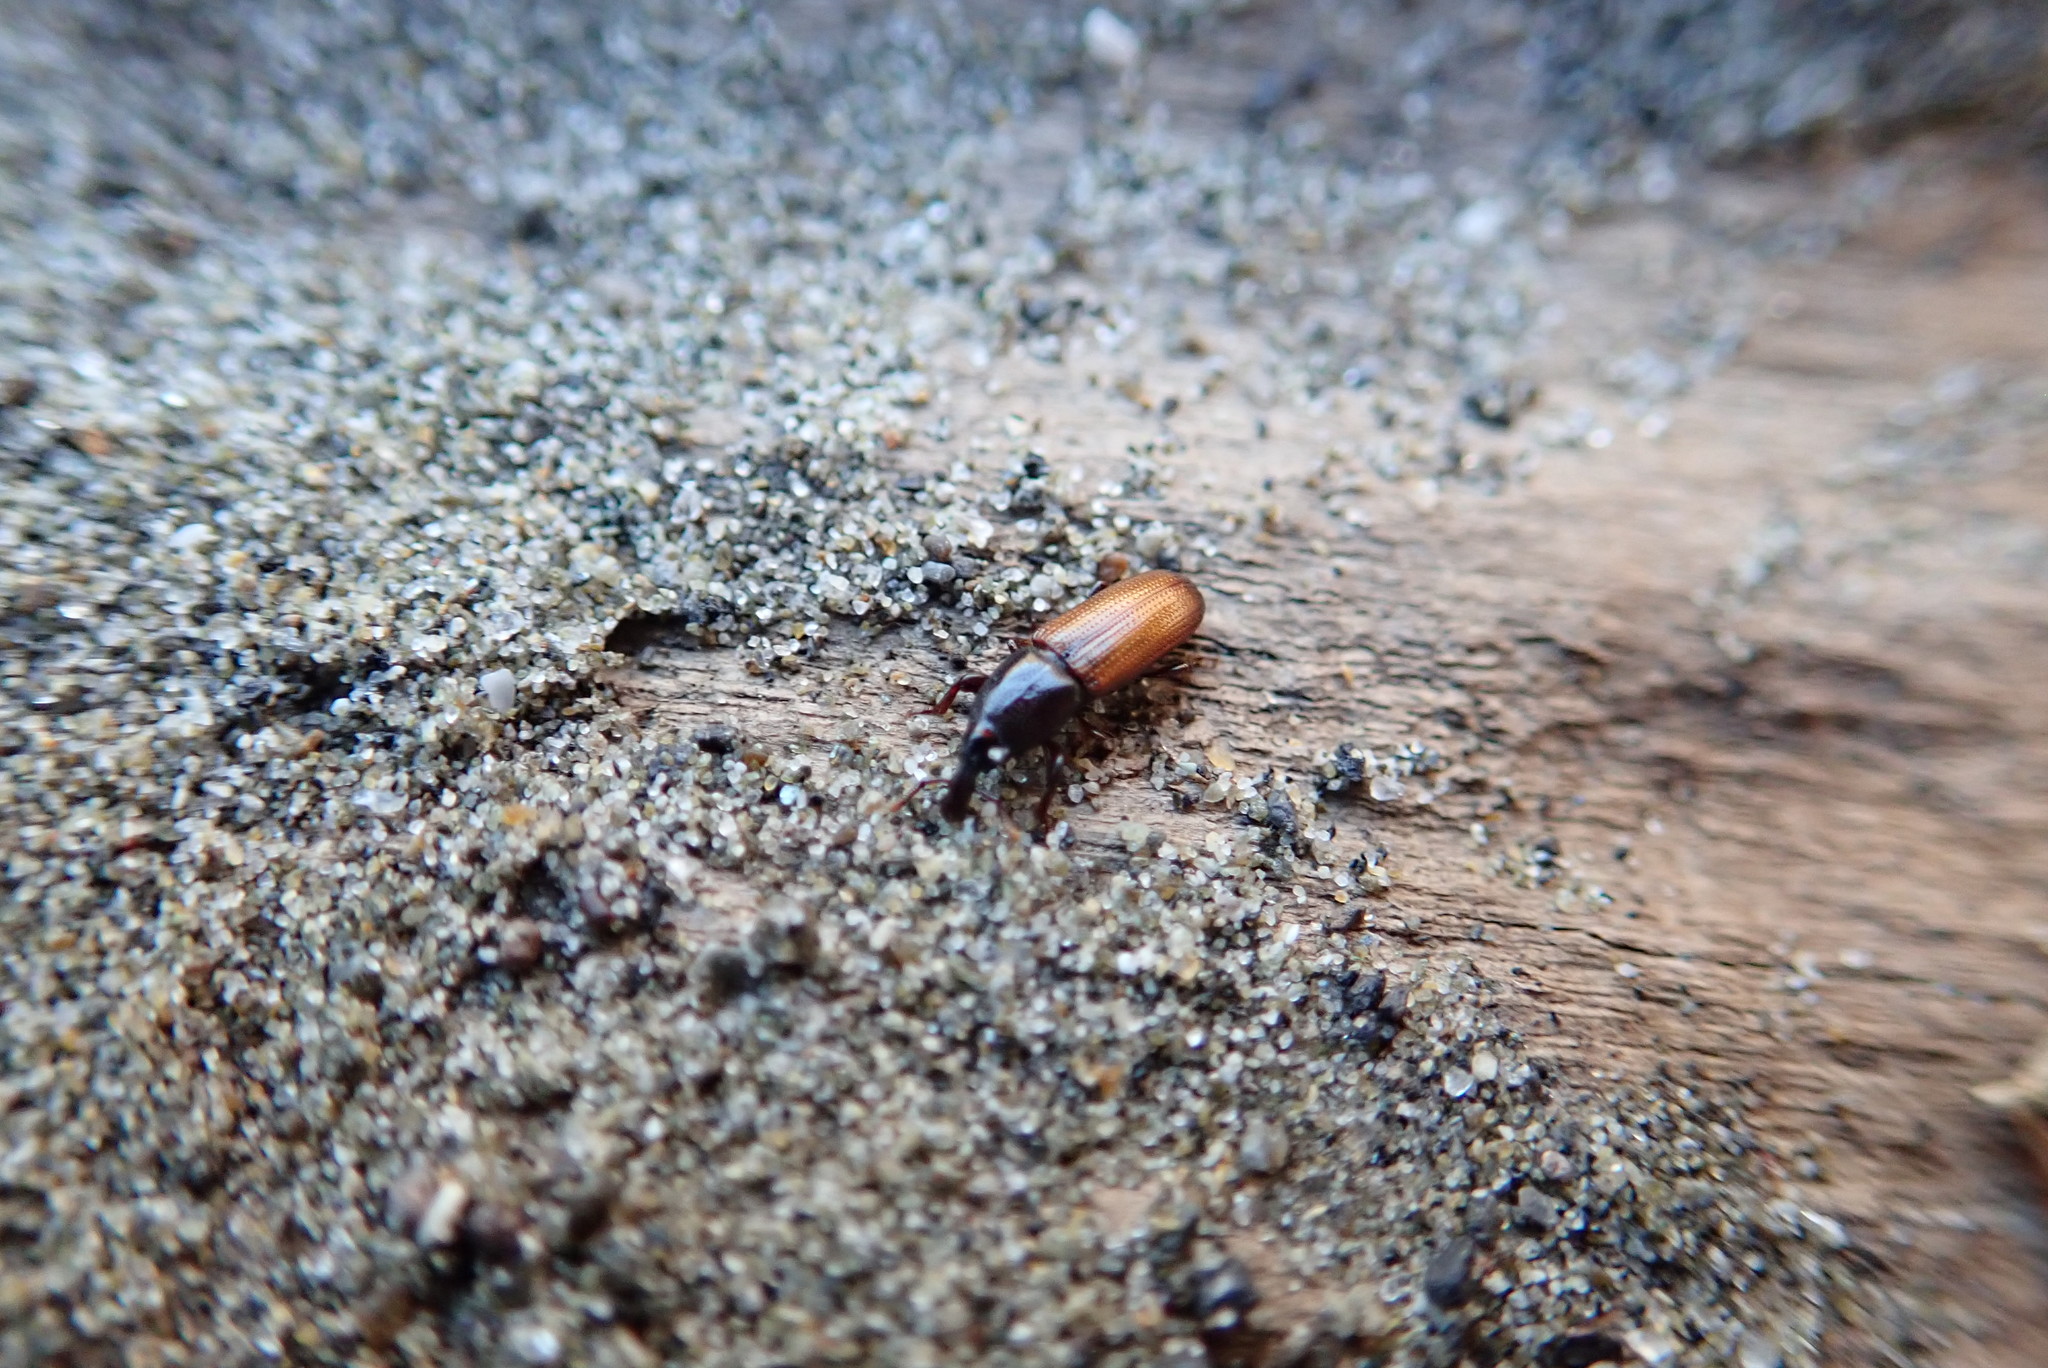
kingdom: Animalia
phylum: Arthropoda
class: Insecta
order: Coleoptera
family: Curculionidae
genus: Mesites
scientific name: Mesites pallidipennis
